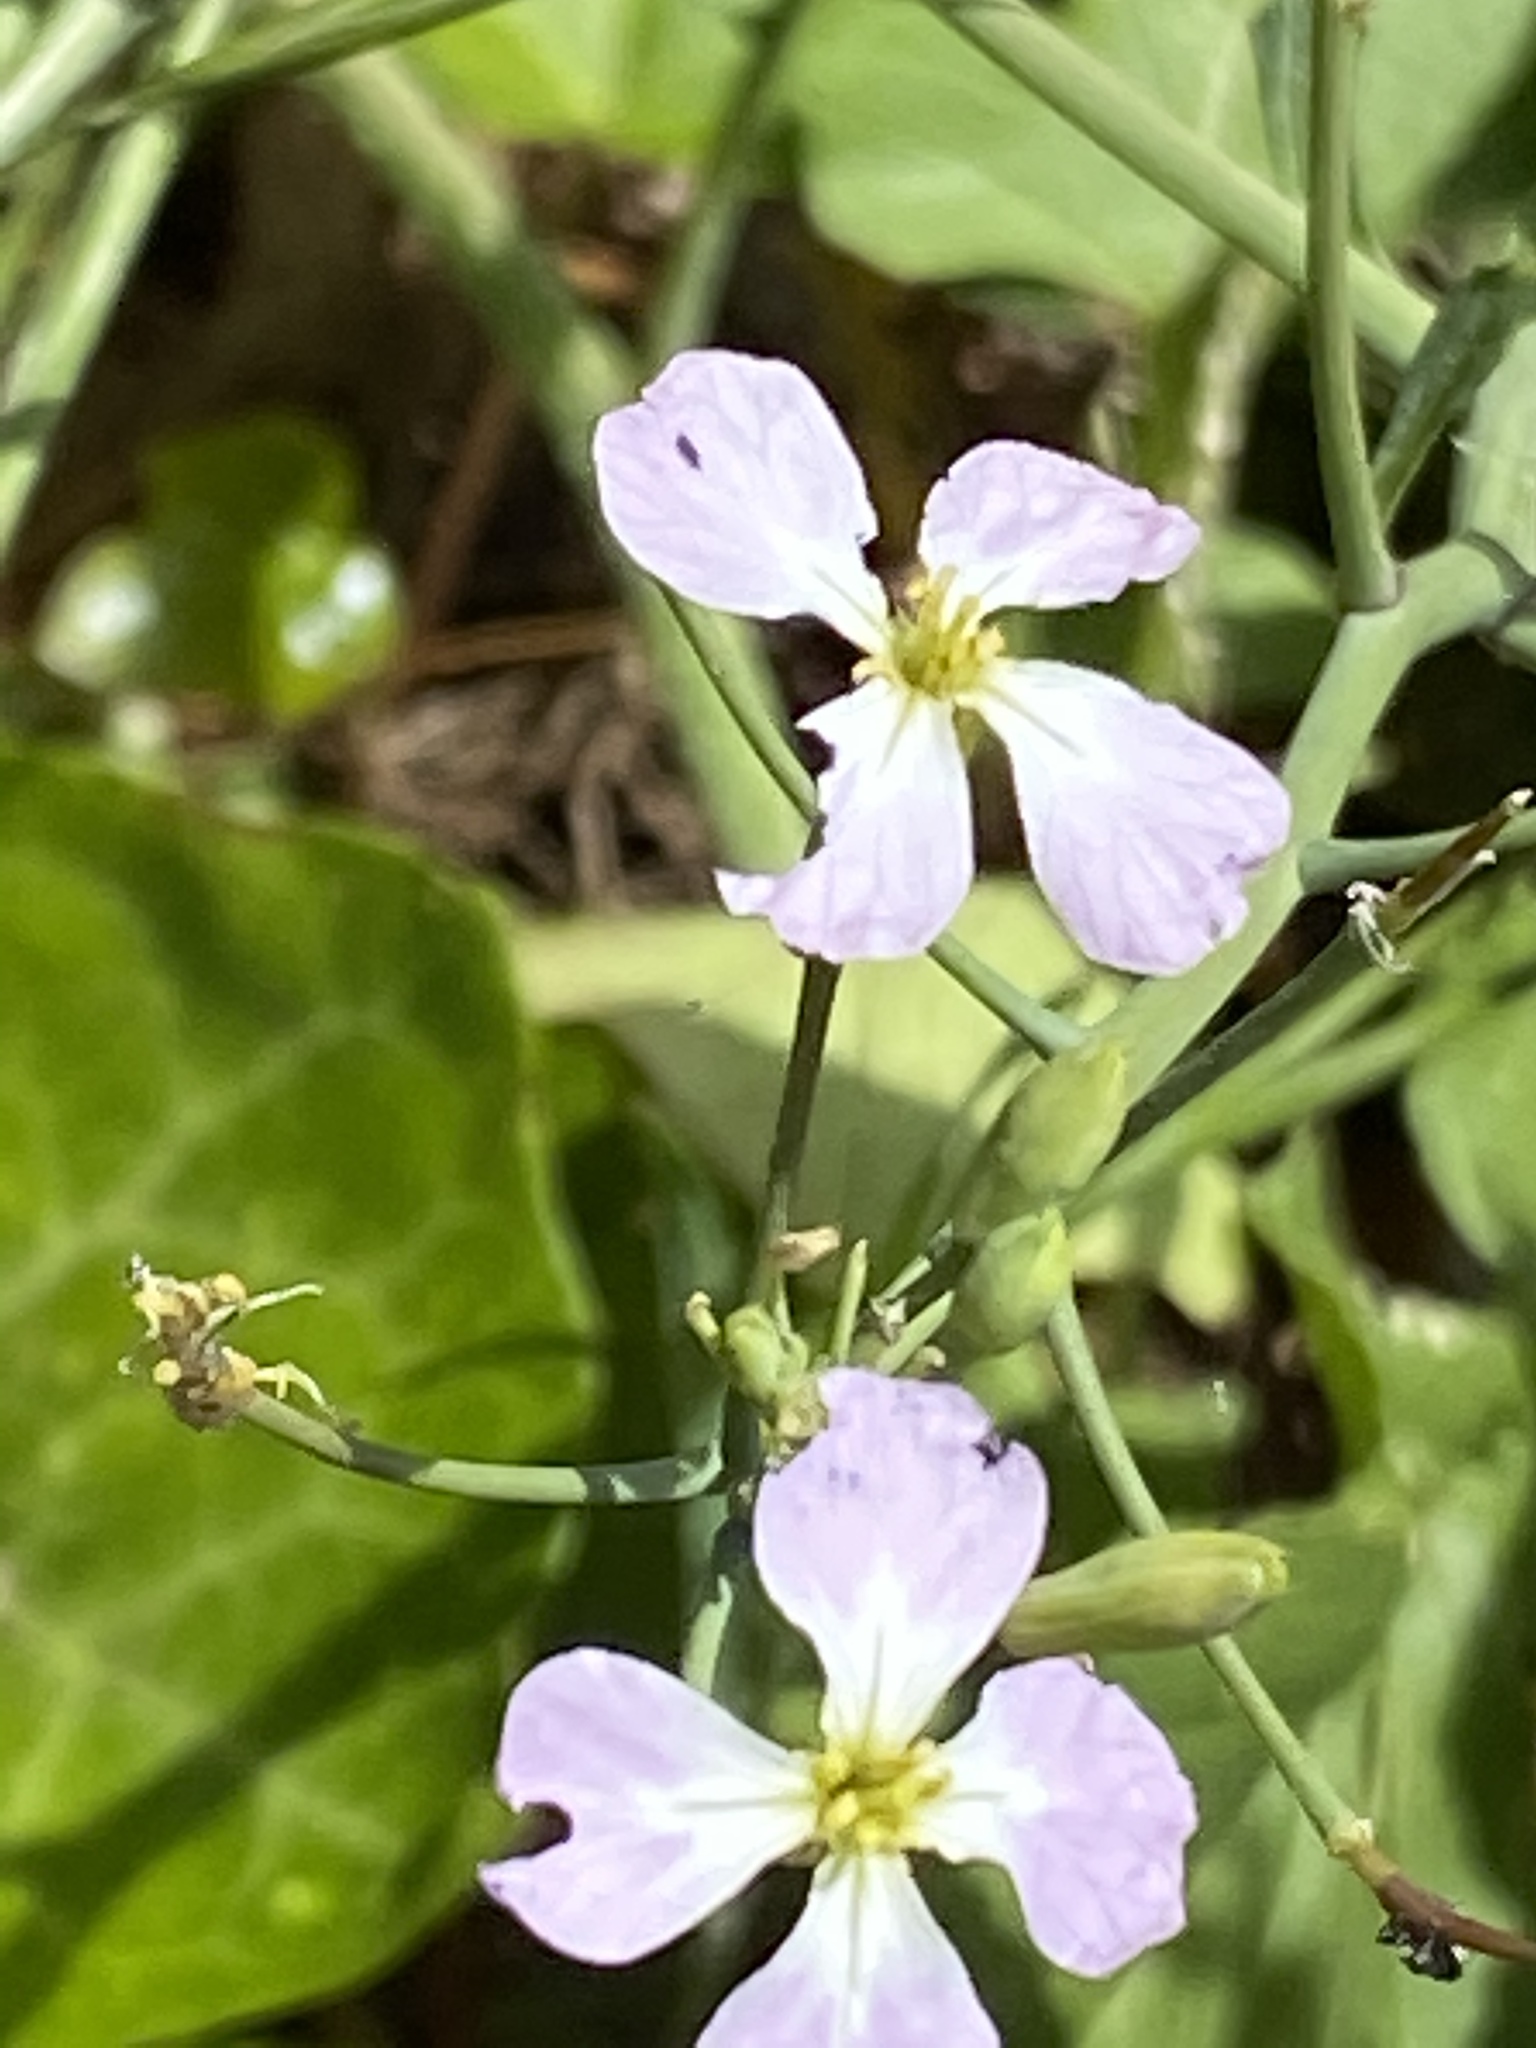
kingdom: Plantae
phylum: Tracheophyta
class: Magnoliopsida
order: Brassicales
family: Brassicaceae
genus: Raphanus
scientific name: Raphanus sativus
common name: Cultivated radish
